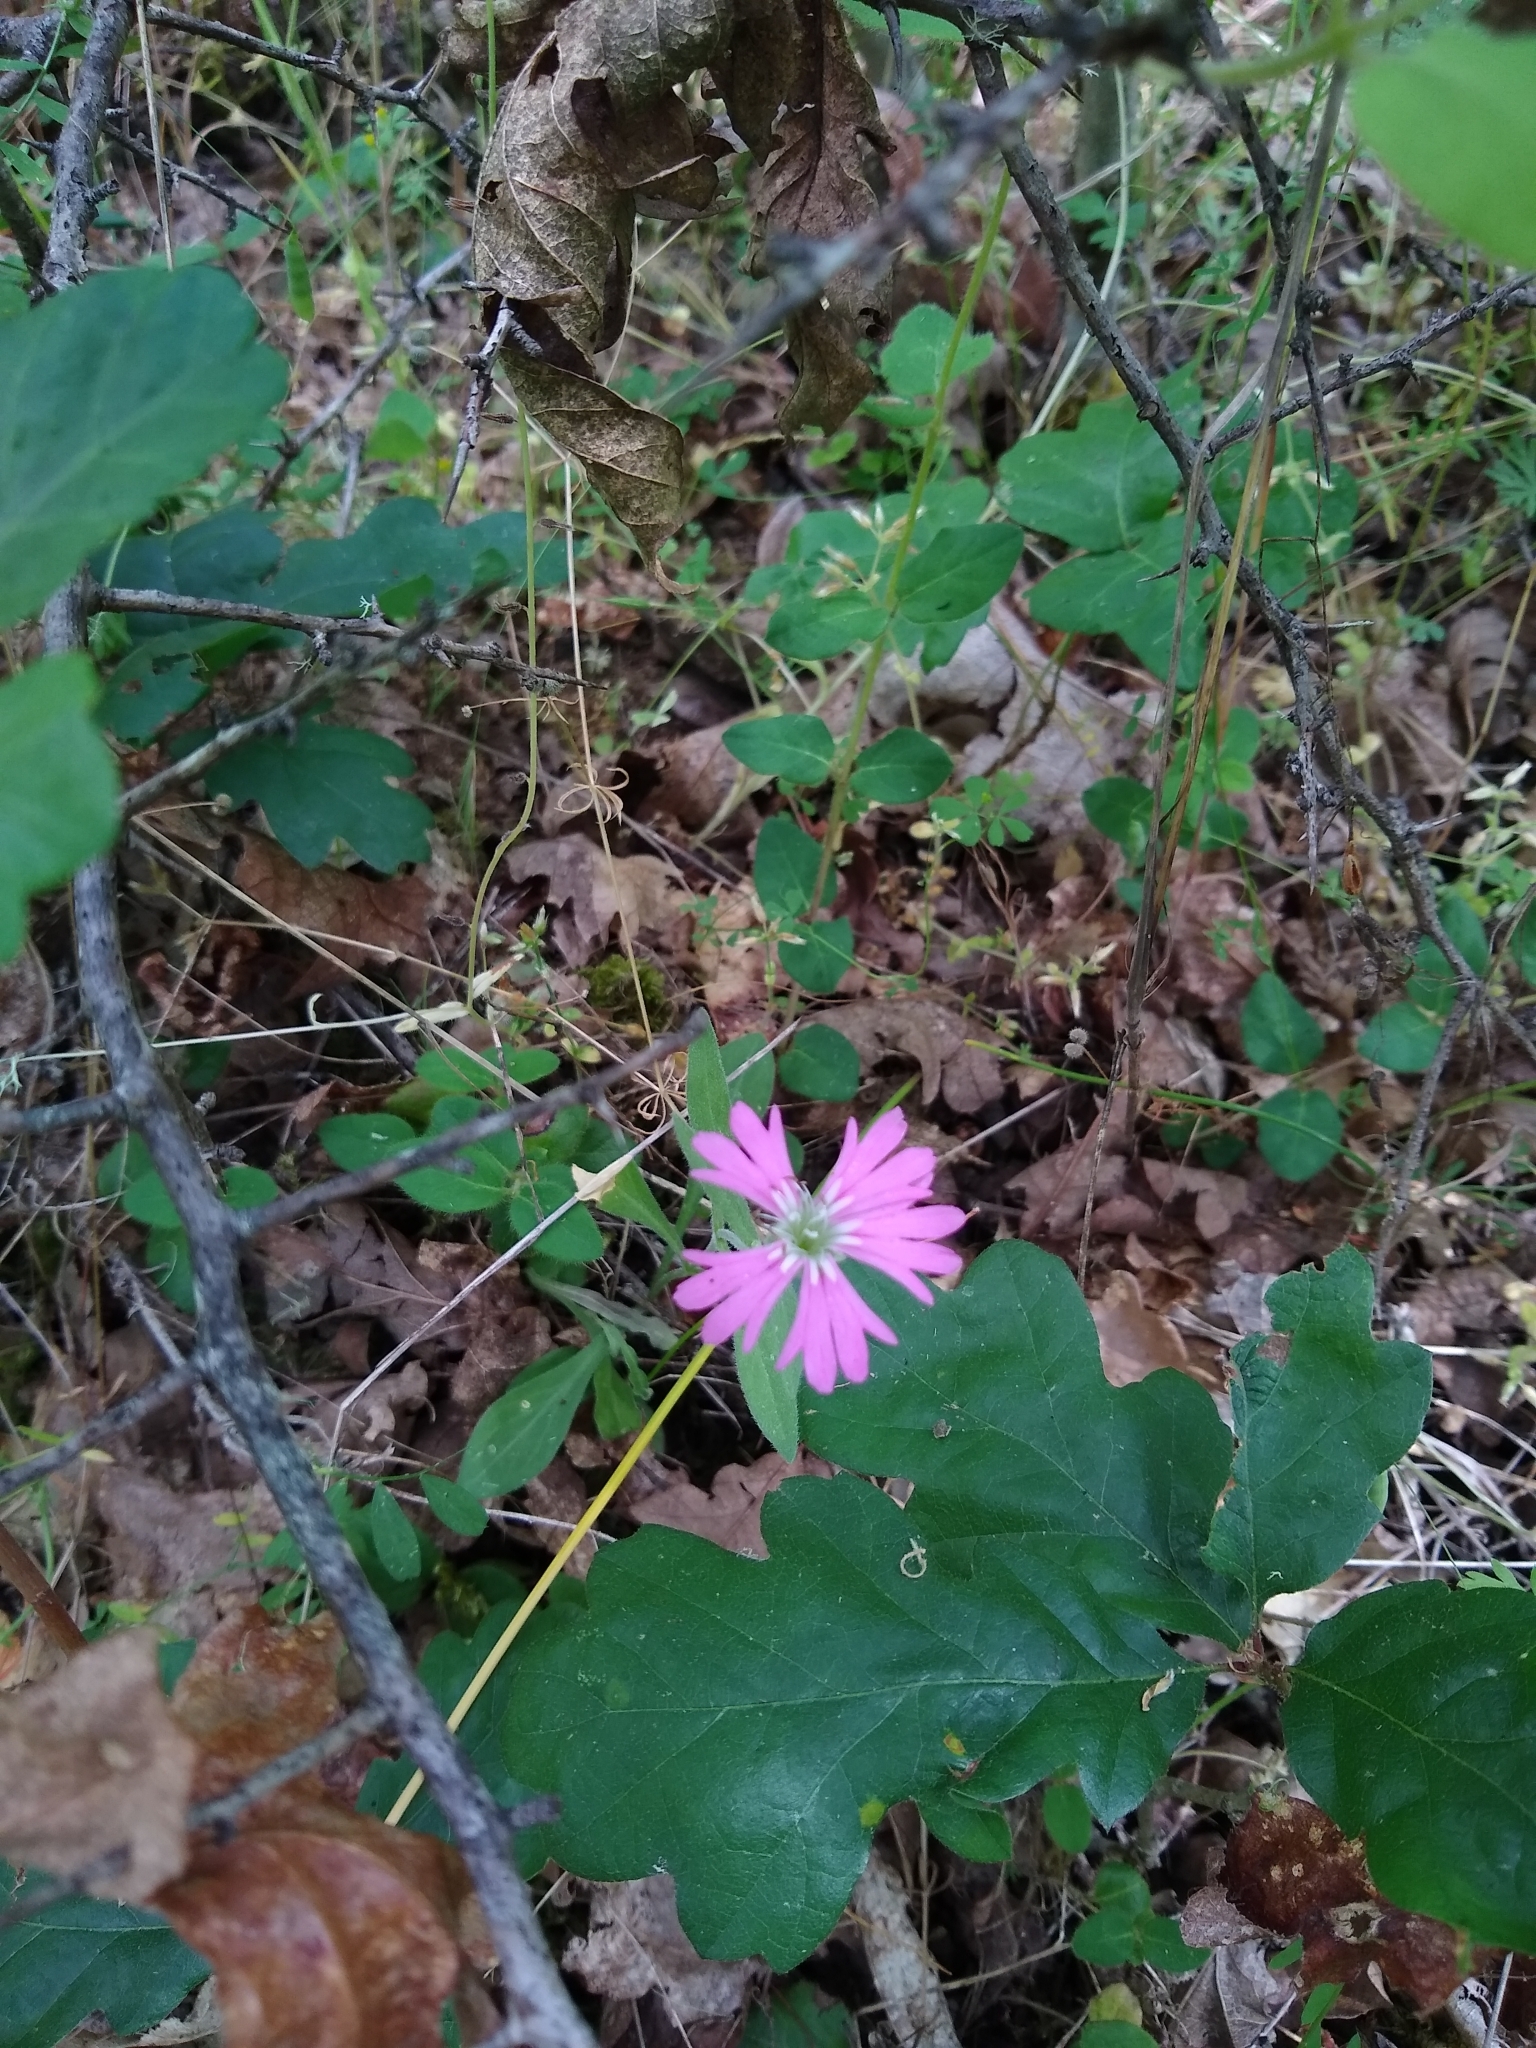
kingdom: Plantae
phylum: Tracheophyta
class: Magnoliopsida
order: Caryophyllales
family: Caryophyllaceae
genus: Silene
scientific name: Silene hookeri
